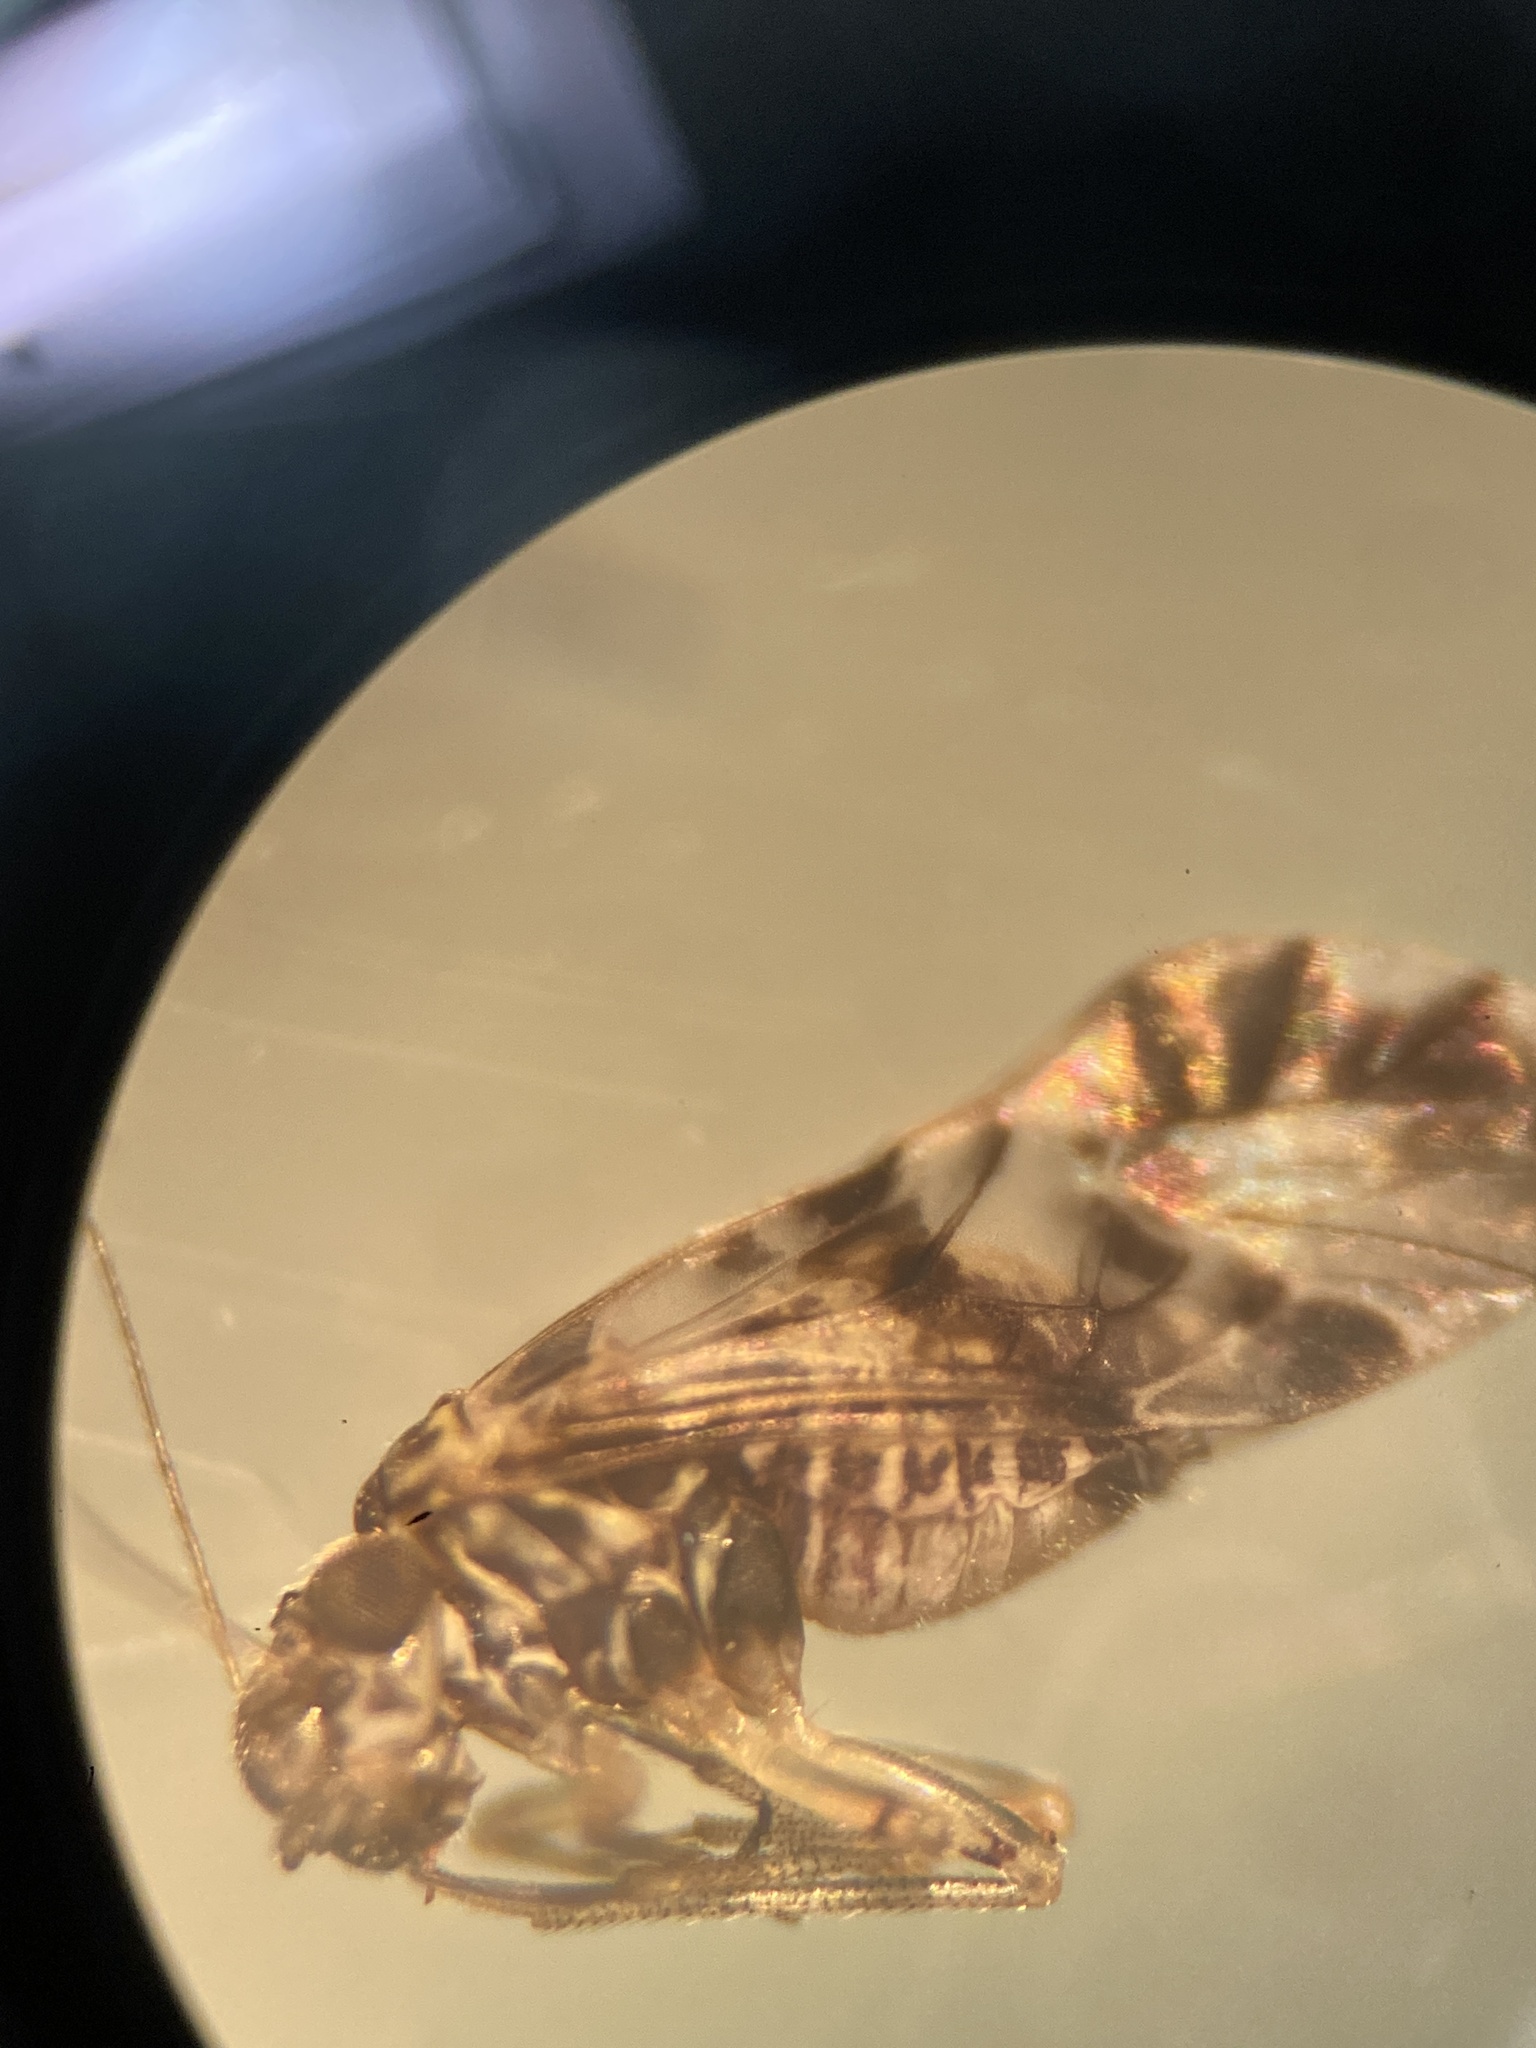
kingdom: Animalia
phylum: Arthropoda
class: Insecta
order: Psocodea
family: Psocidae
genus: Ptycta
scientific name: Ptycta polluta
